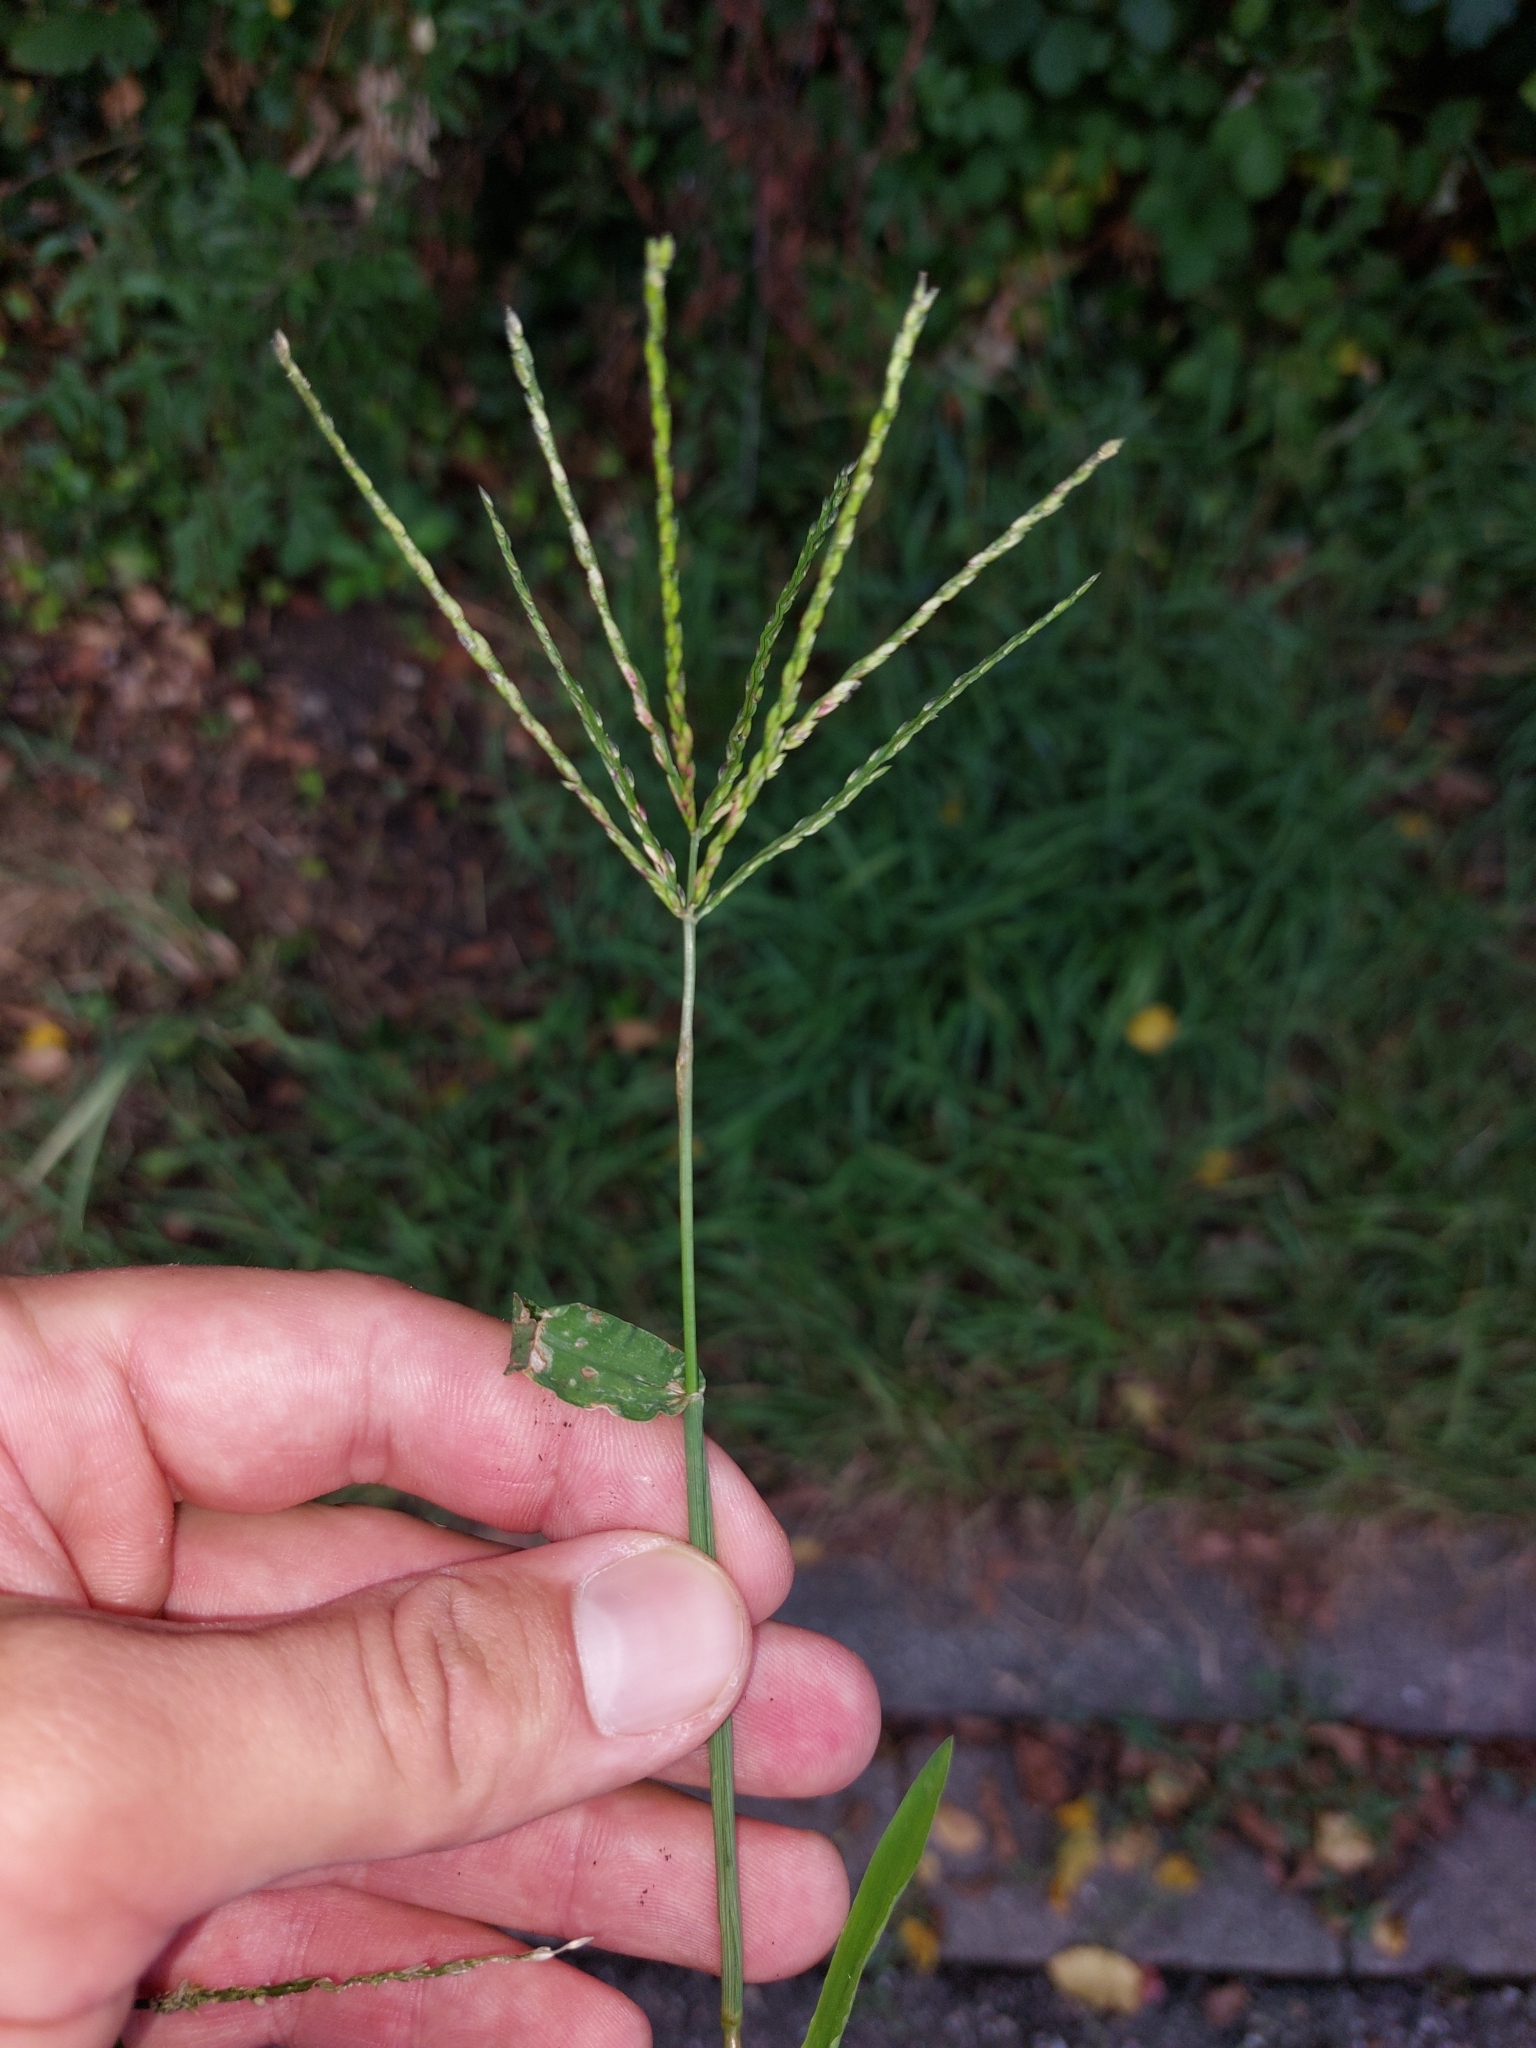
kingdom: Plantae
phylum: Tracheophyta
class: Liliopsida
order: Poales
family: Poaceae
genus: Digitaria
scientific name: Digitaria sanguinalis
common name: Hairy crabgrass
